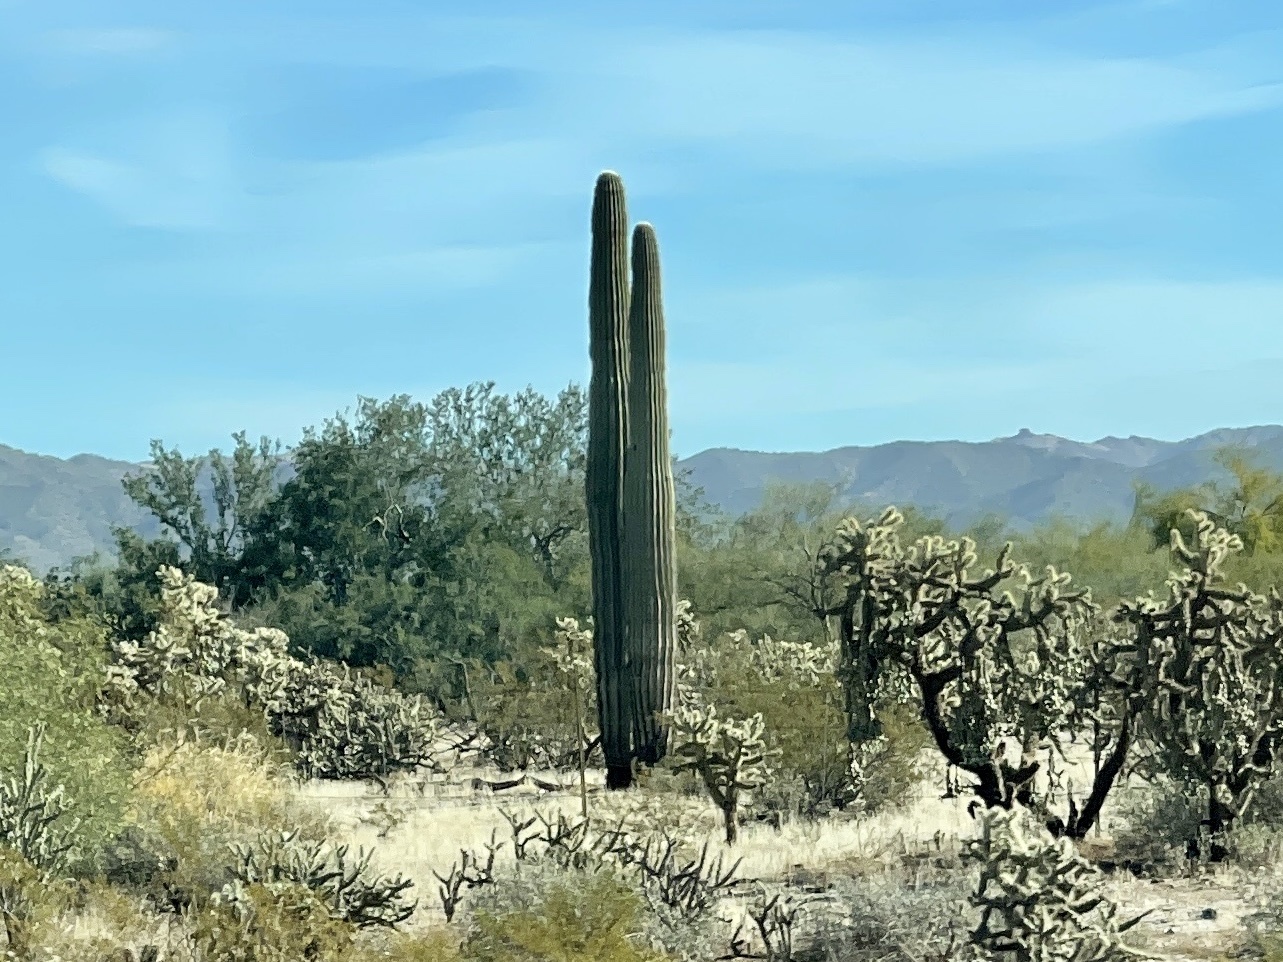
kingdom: Plantae
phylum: Tracheophyta
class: Magnoliopsida
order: Caryophyllales
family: Cactaceae
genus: Carnegiea
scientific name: Carnegiea gigantea
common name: Saguaro
